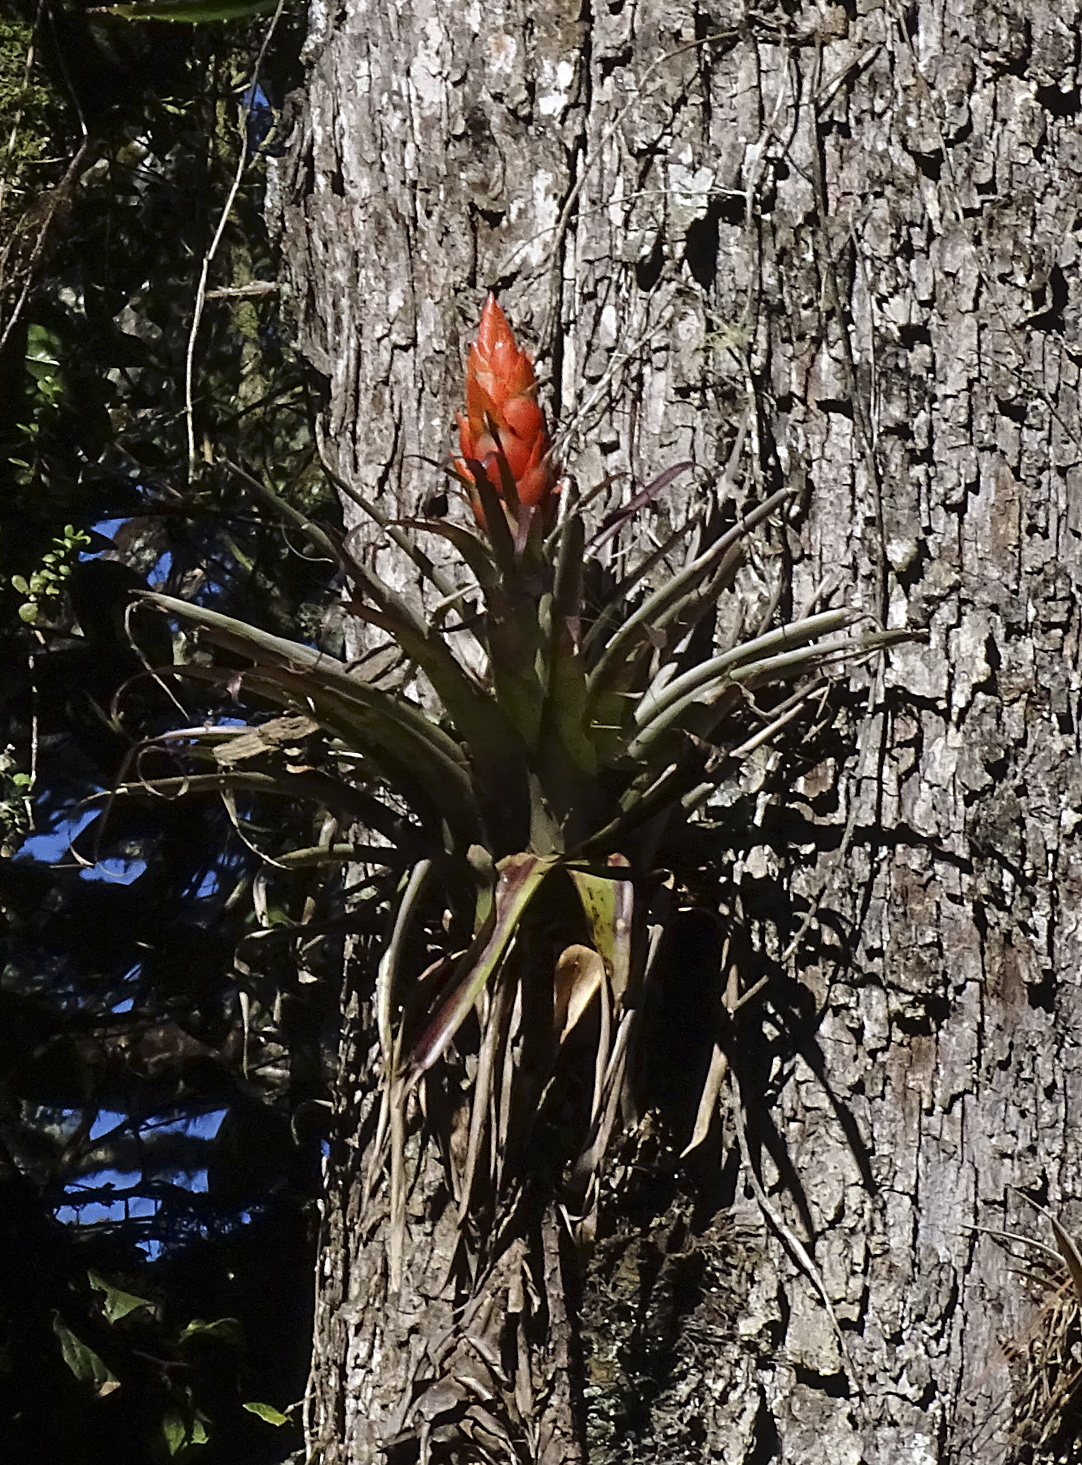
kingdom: Plantae
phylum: Tracheophyta
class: Liliopsida
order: Poales
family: Bromeliaceae
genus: Tillandsia
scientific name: Tillandsia ponderosa
